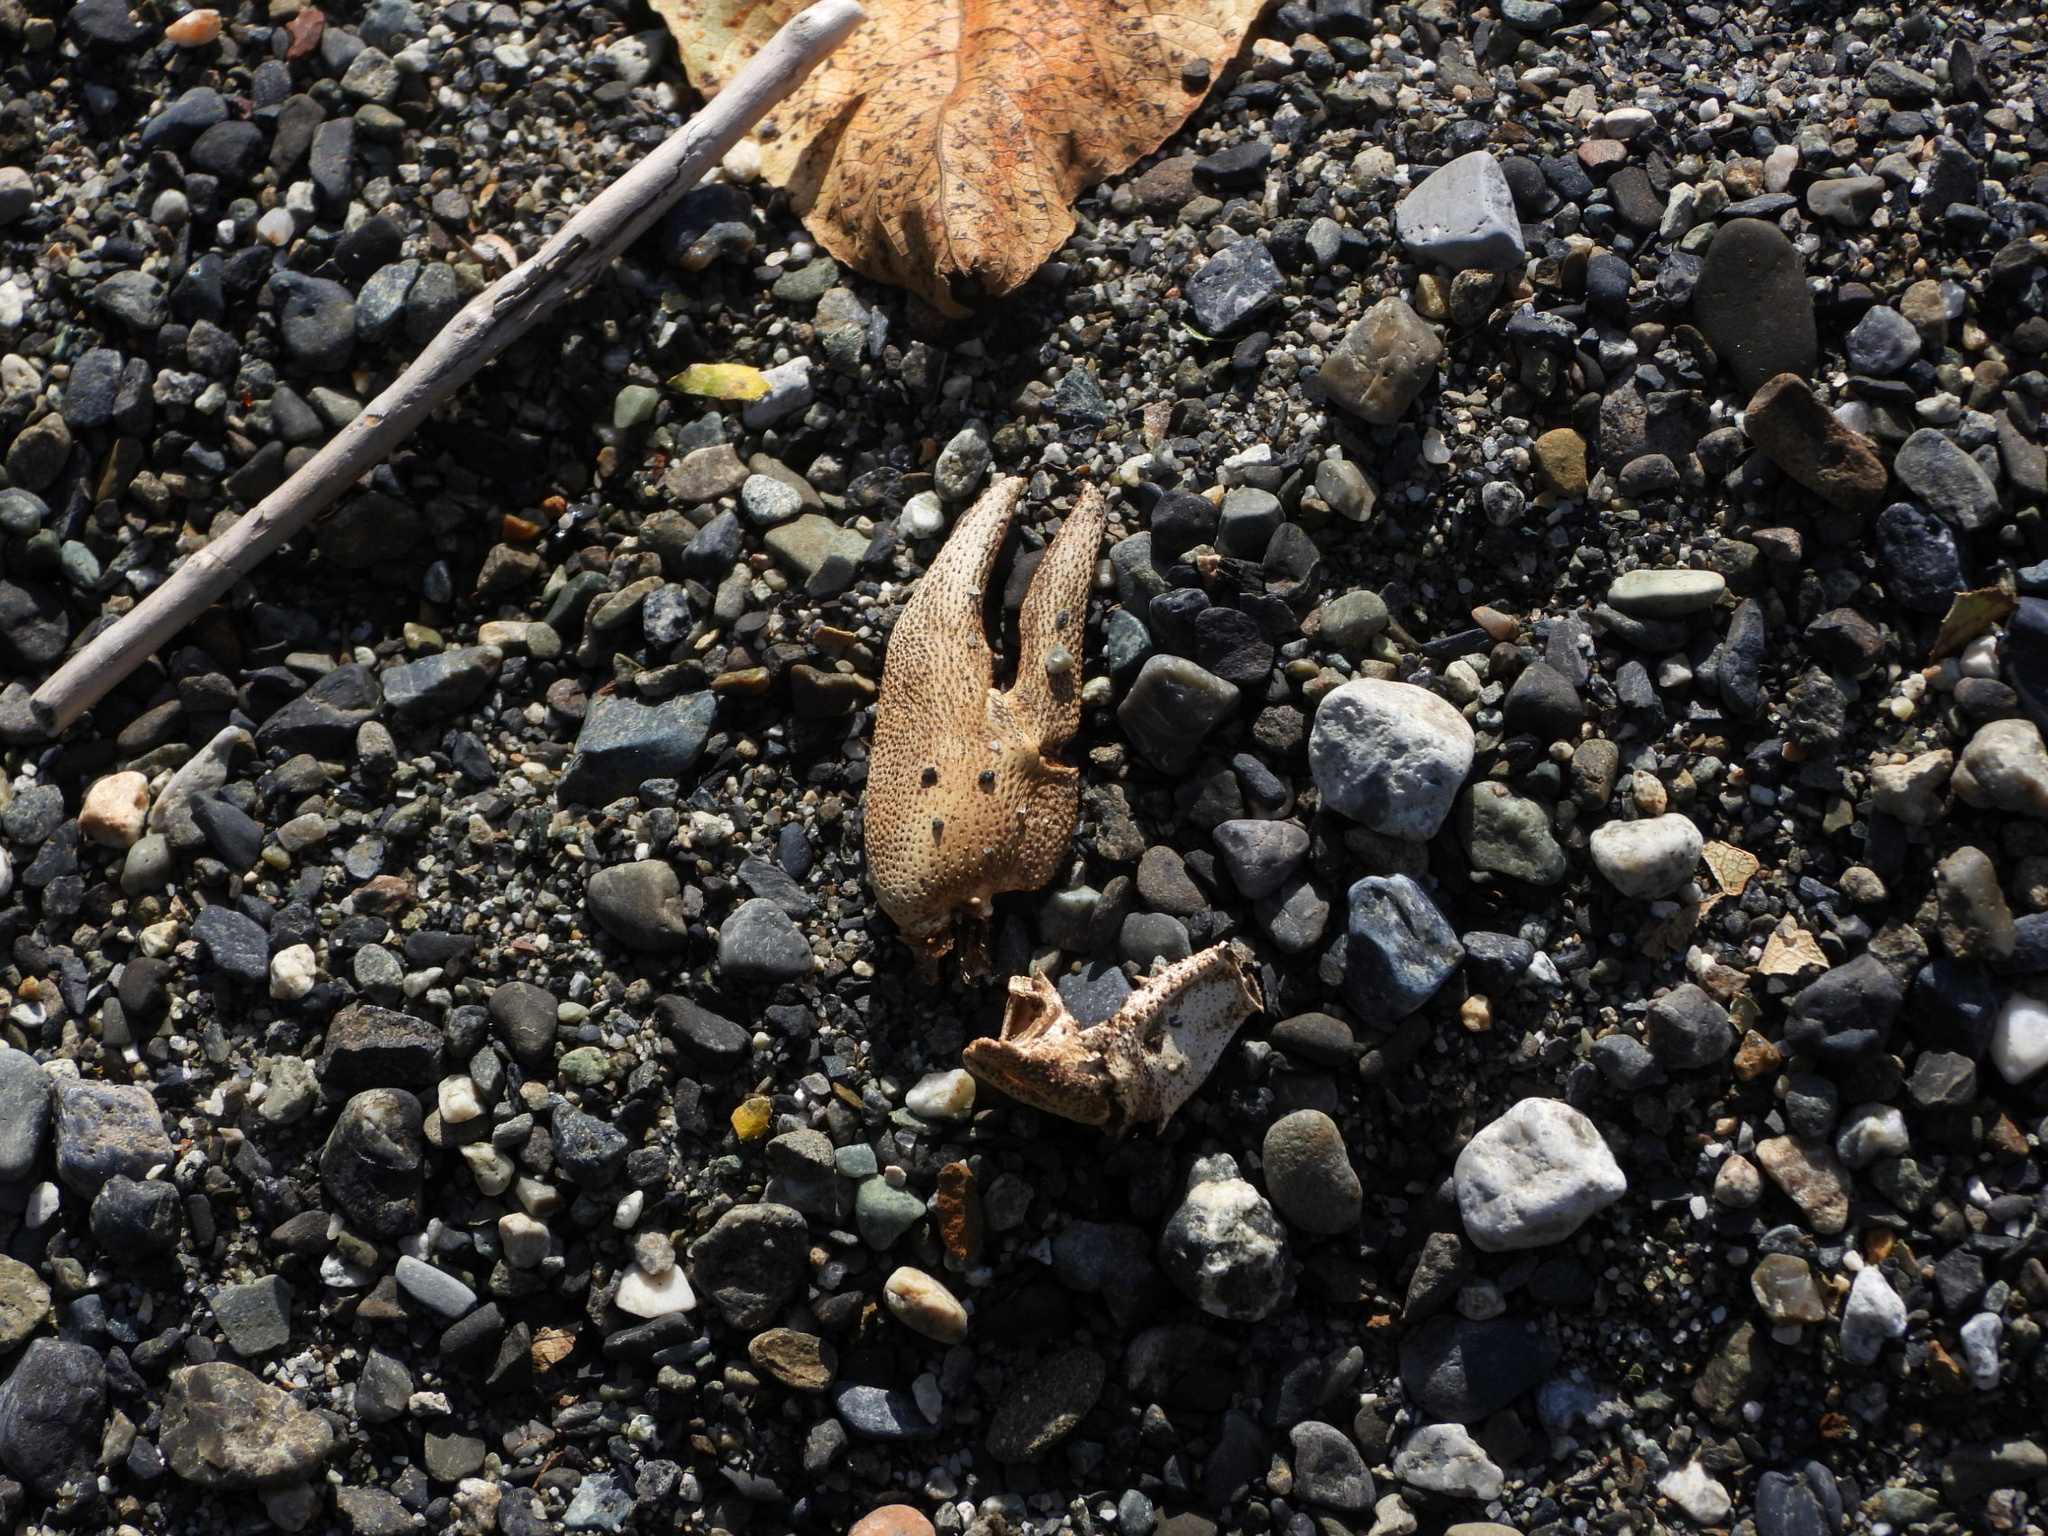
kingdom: Animalia
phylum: Arthropoda
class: Malacostraca
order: Decapoda
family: Astacidae
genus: Pacifastacus
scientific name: Pacifastacus leniusculus
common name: Signal crayfish
